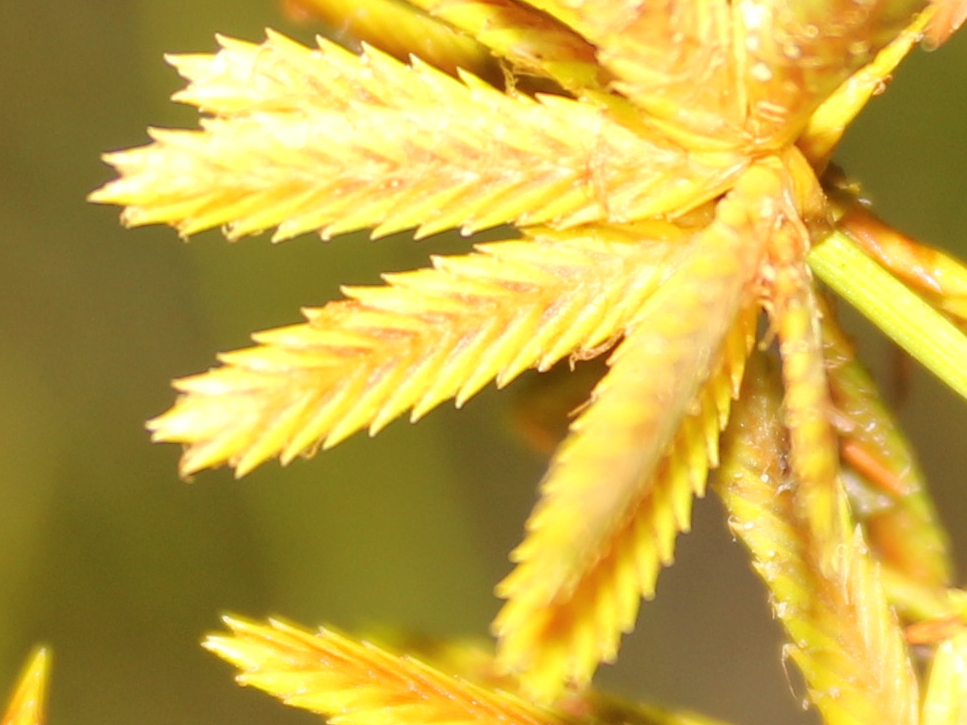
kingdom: Plantae
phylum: Tracheophyta
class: Liliopsida
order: Poales
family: Cyperaceae
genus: Cyperus
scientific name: Cyperus dentatus
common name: Dentate umbrella sedge
